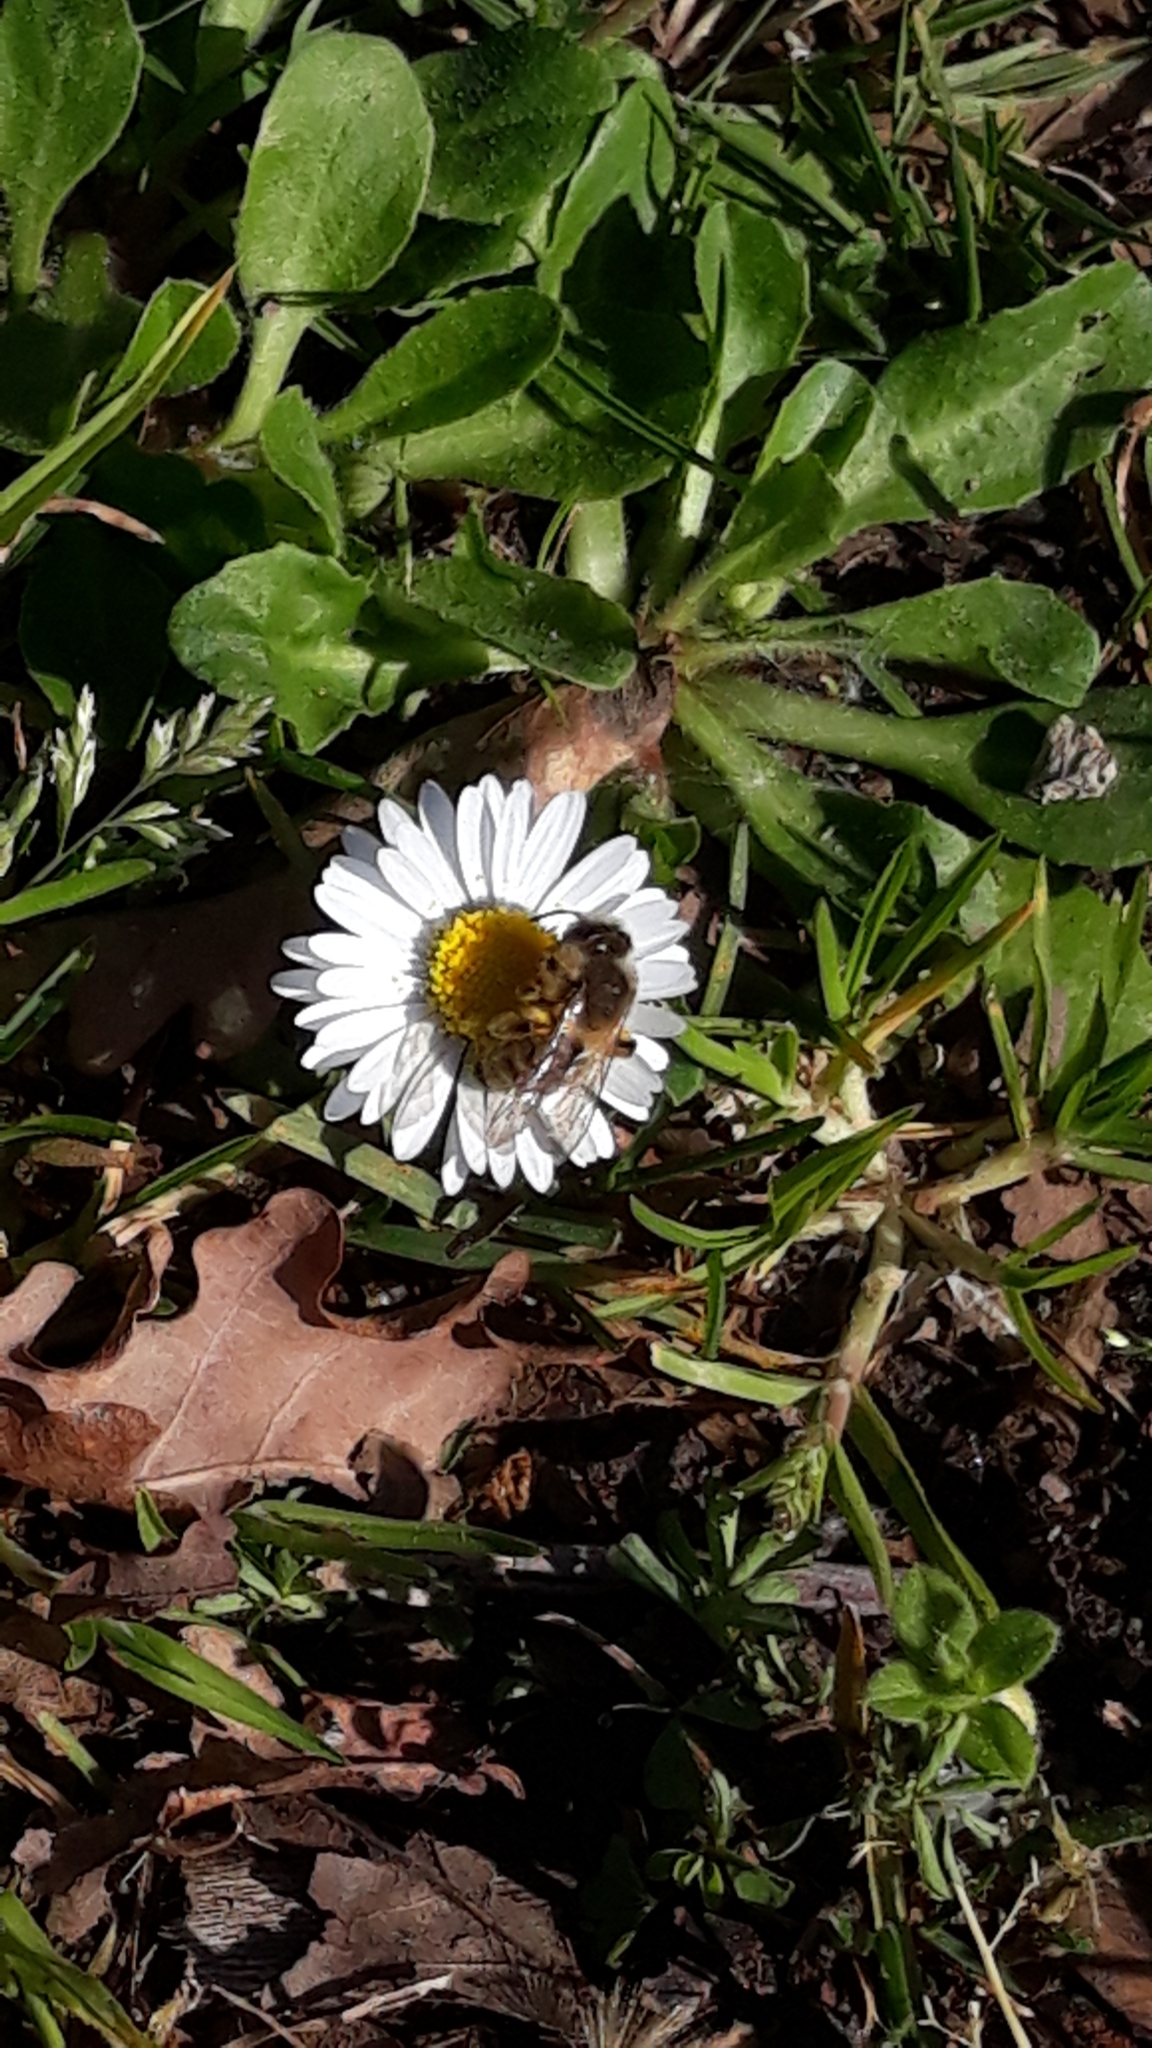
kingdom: Animalia
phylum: Arthropoda
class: Insecta
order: Hymenoptera
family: Andrenidae
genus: Andrena
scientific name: Andrena
